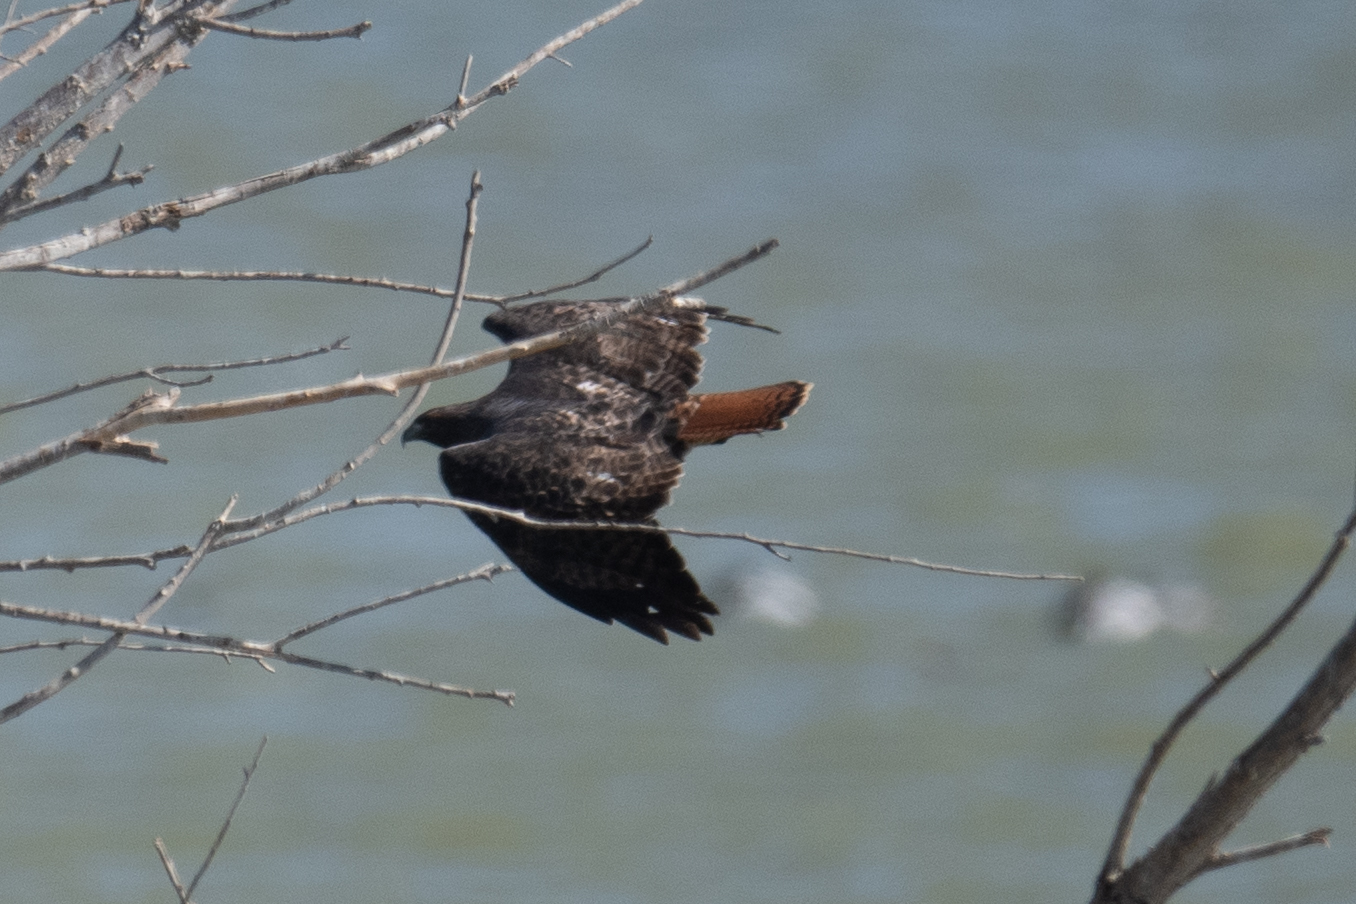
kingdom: Animalia
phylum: Chordata
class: Aves
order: Accipitriformes
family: Accipitridae
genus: Buteo
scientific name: Buteo jamaicensis
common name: Red-tailed hawk
